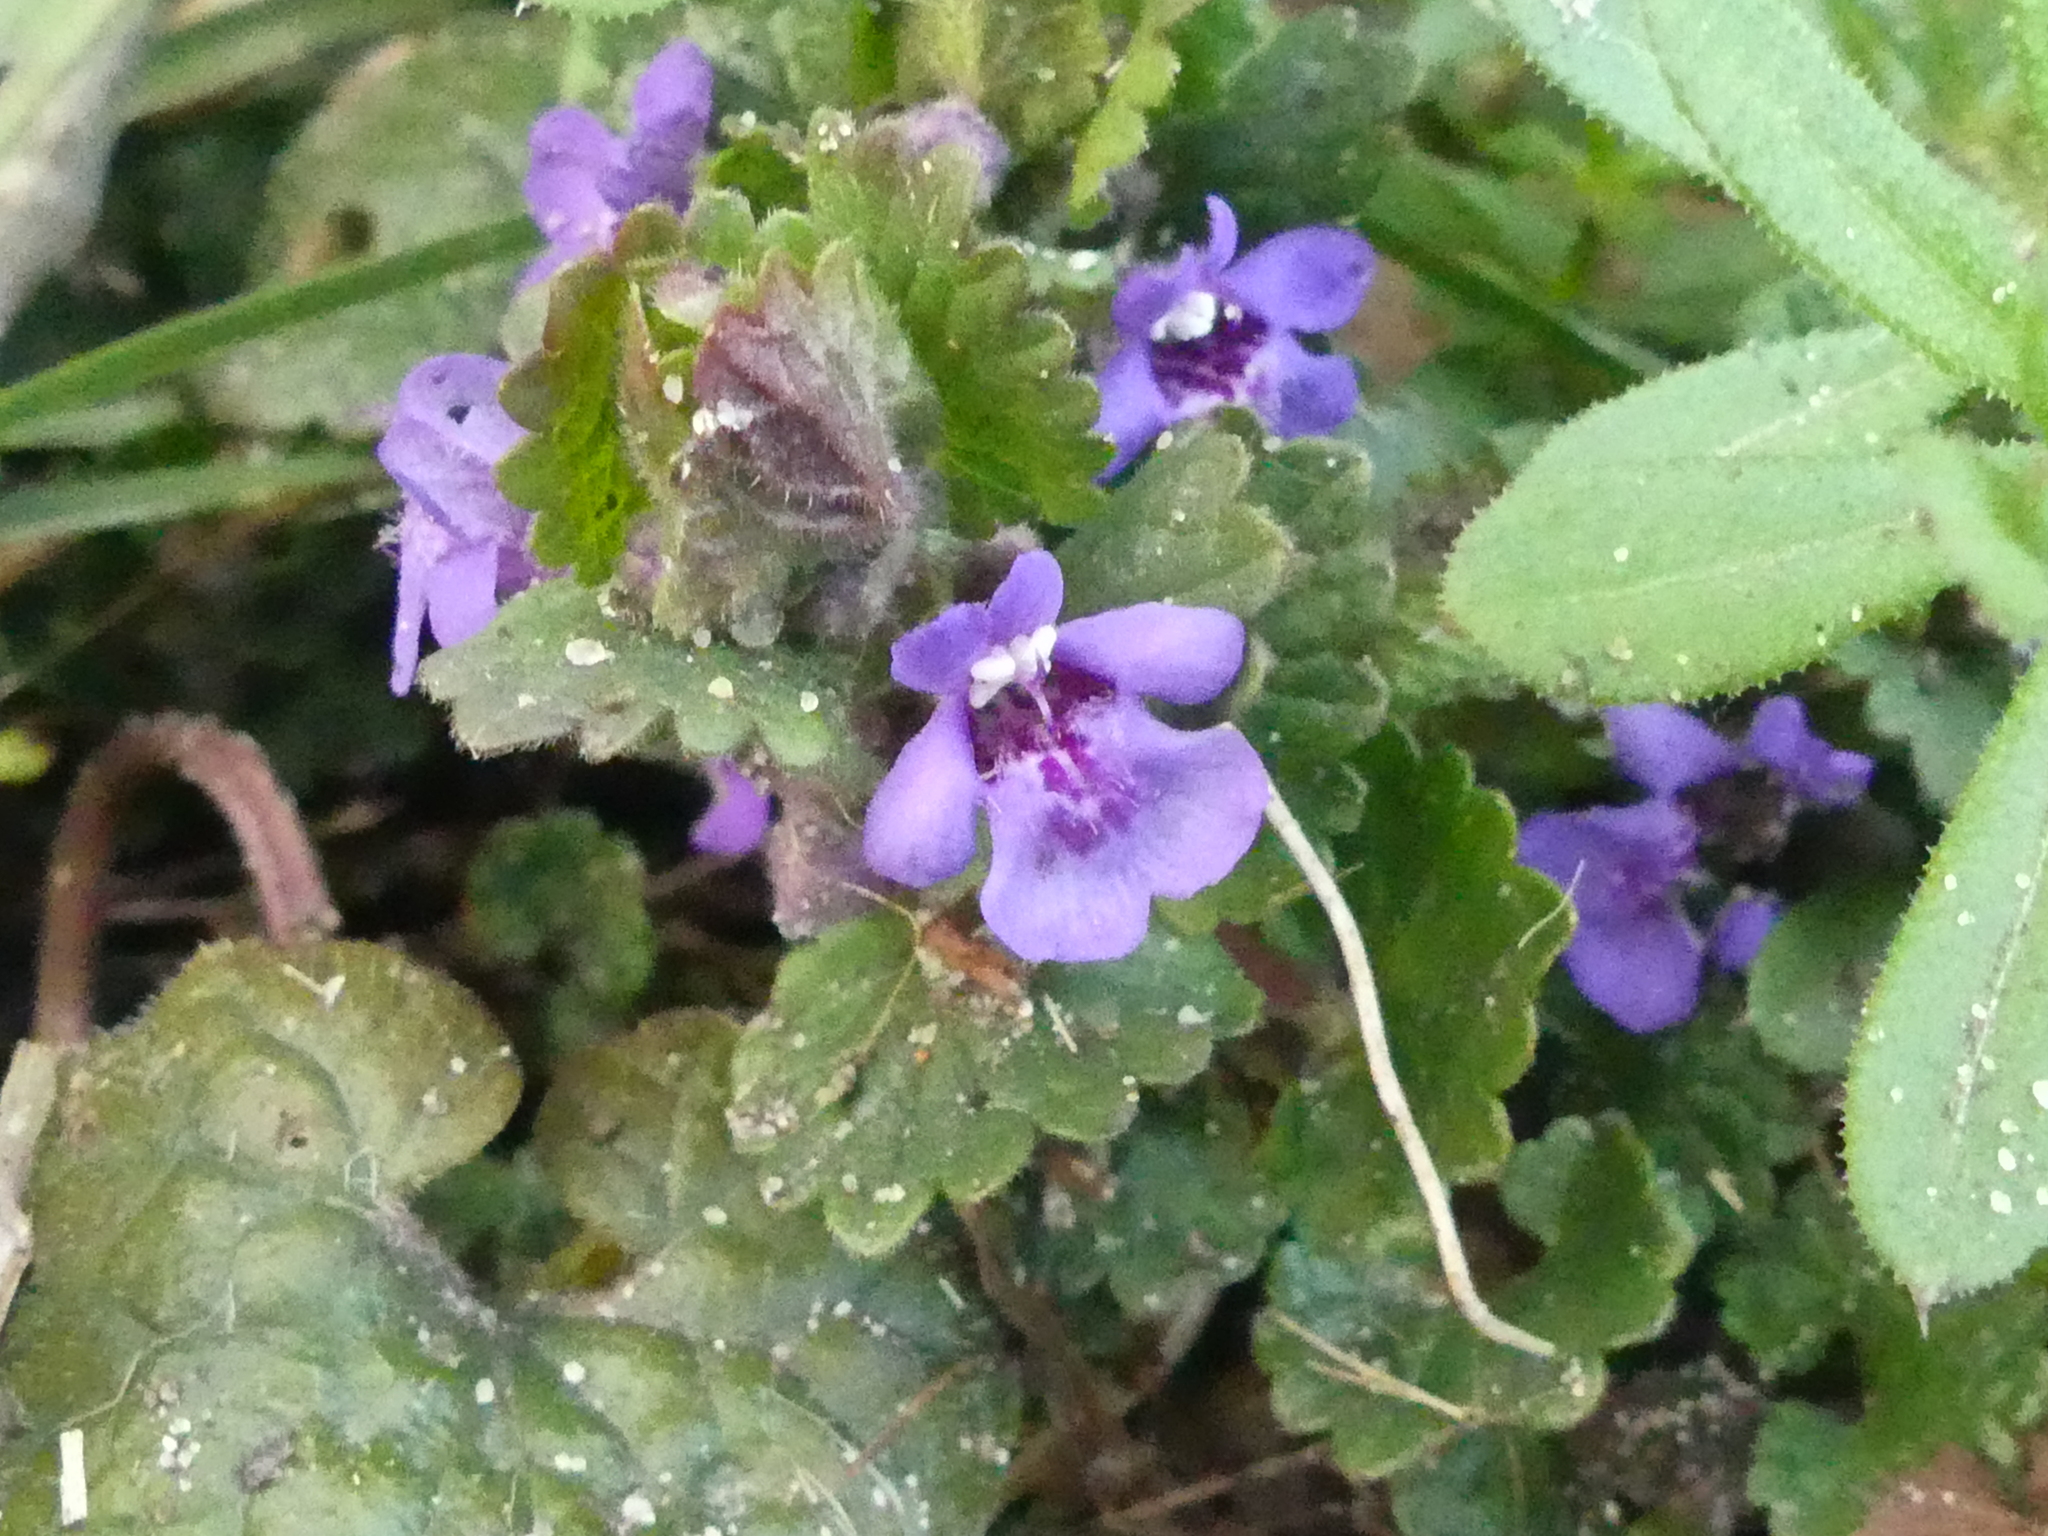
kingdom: Plantae
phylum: Tracheophyta
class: Magnoliopsida
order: Lamiales
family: Lamiaceae
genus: Glechoma
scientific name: Glechoma hederacea
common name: Ground ivy
